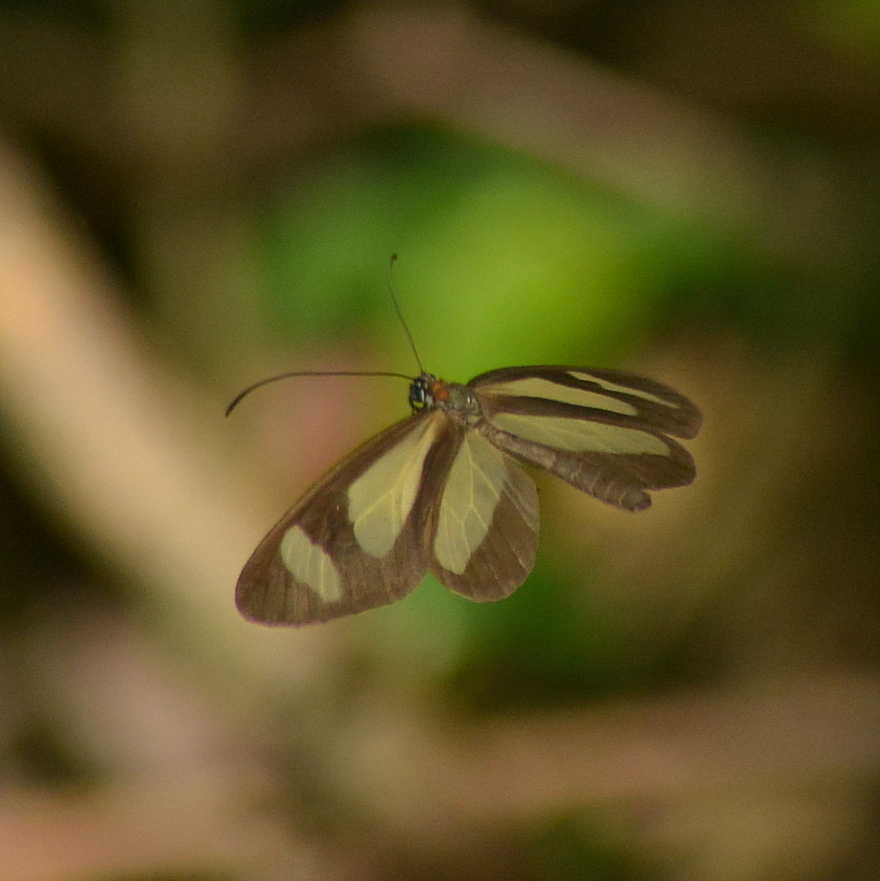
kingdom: Animalia
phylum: Arthropoda
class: Insecta
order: Lepidoptera
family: Nymphalidae
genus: Aeria
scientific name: Aeria olena
